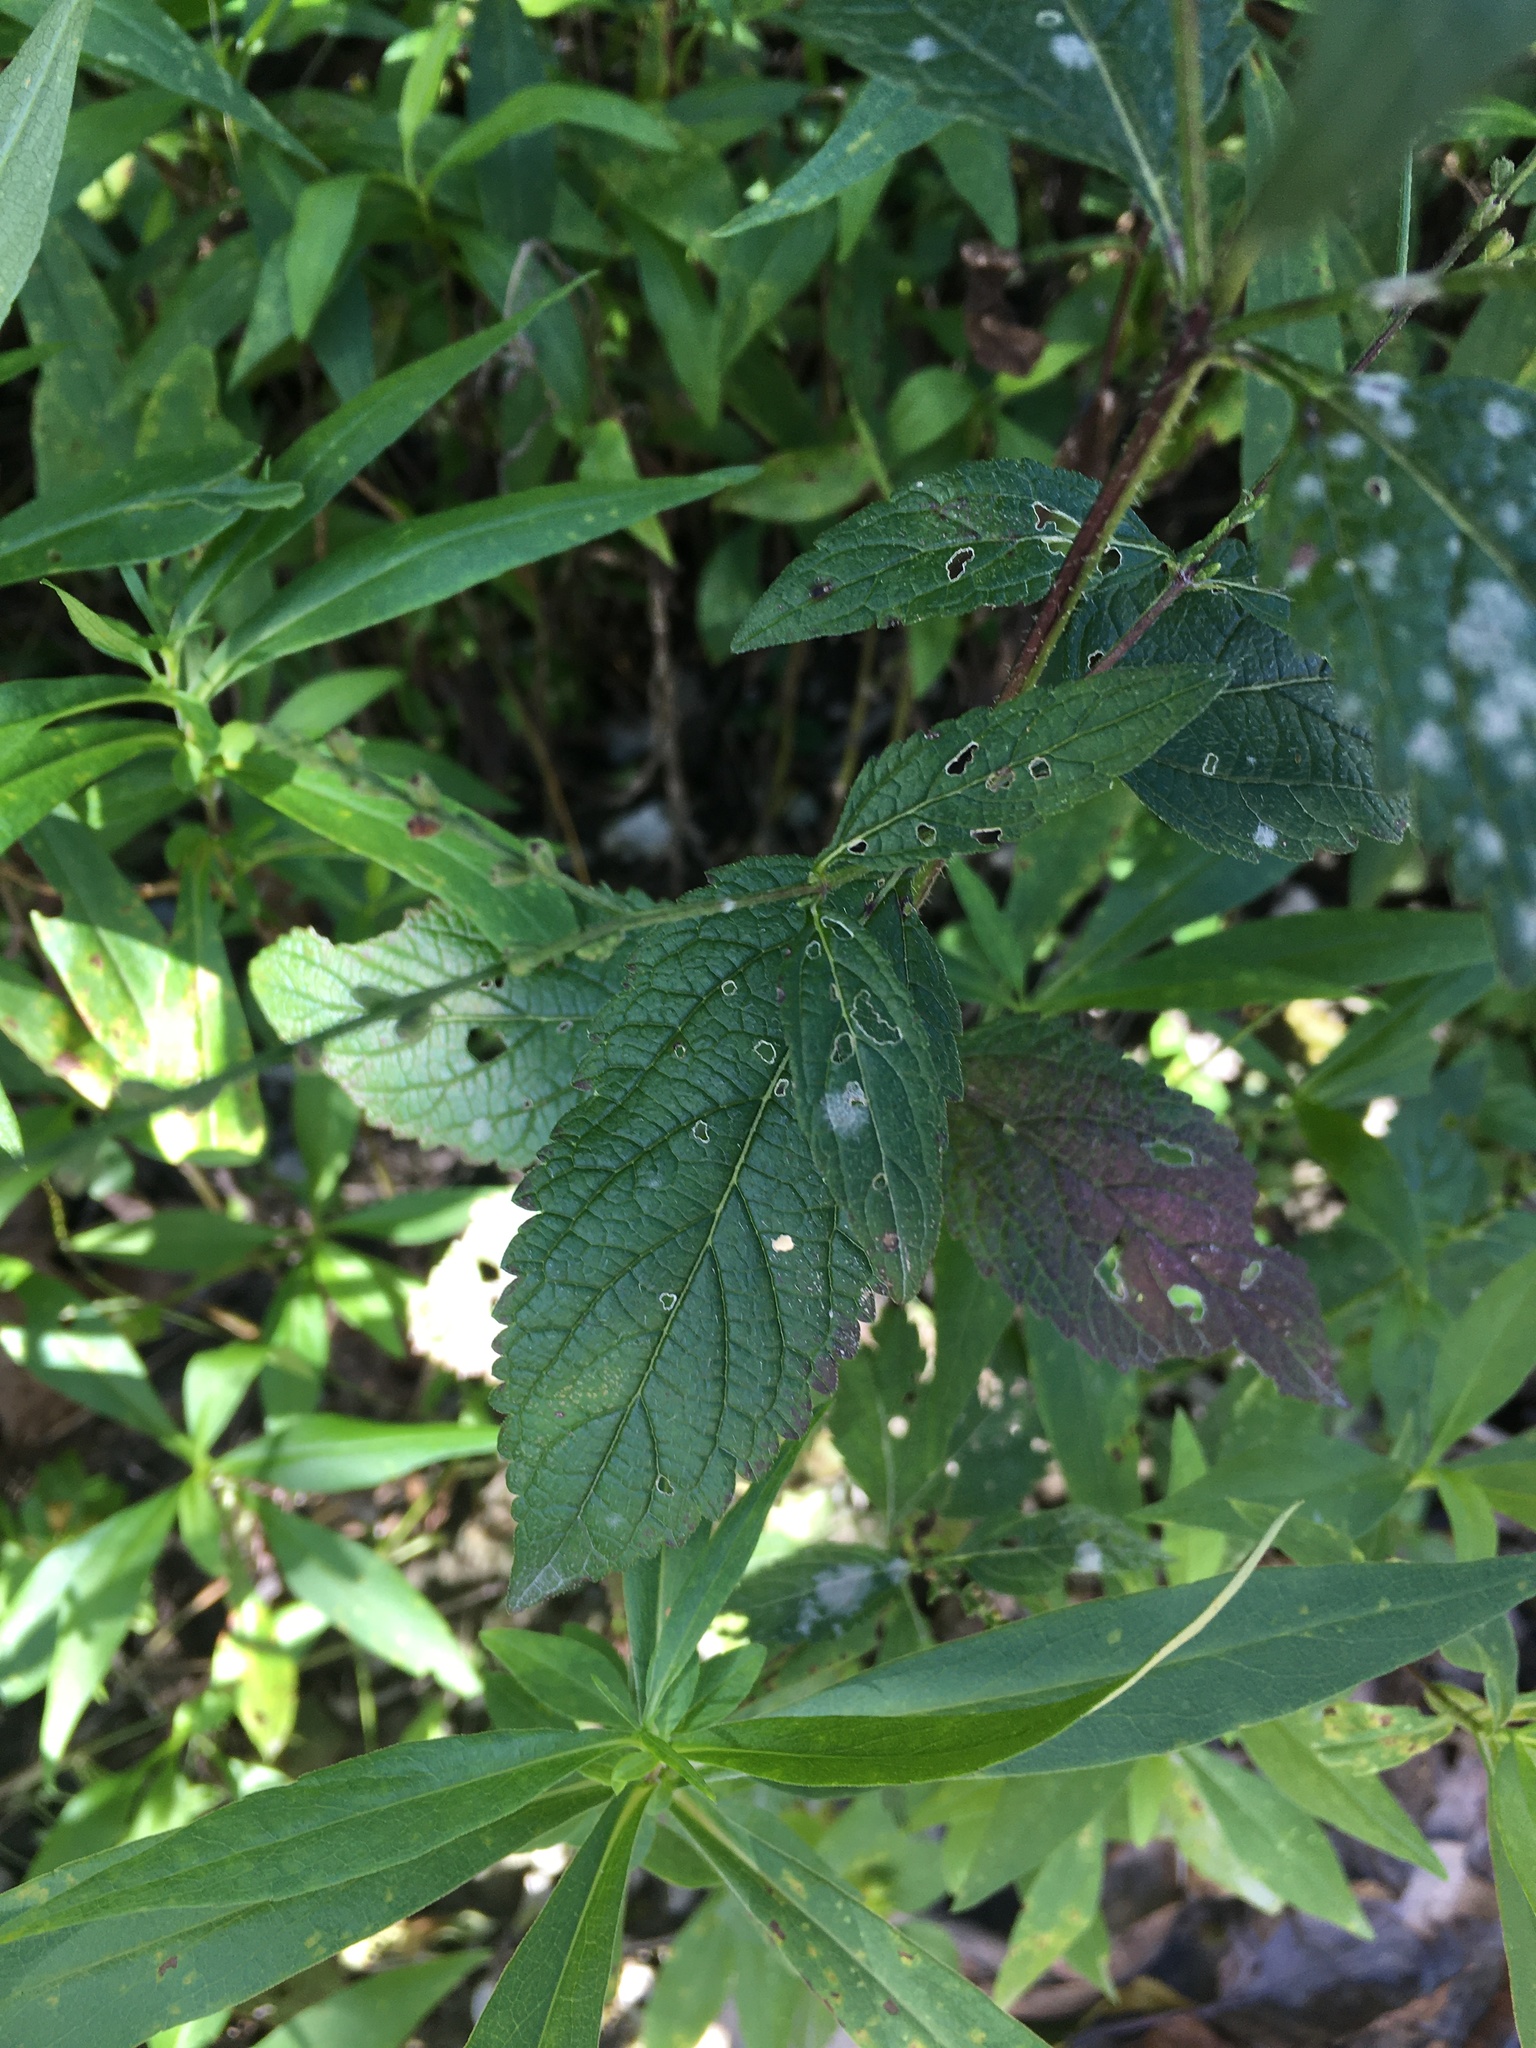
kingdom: Plantae
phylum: Tracheophyta
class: Magnoliopsida
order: Lamiales
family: Verbenaceae
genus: Verbena
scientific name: Verbena urticifolia
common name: Nettle-leaved vervain
